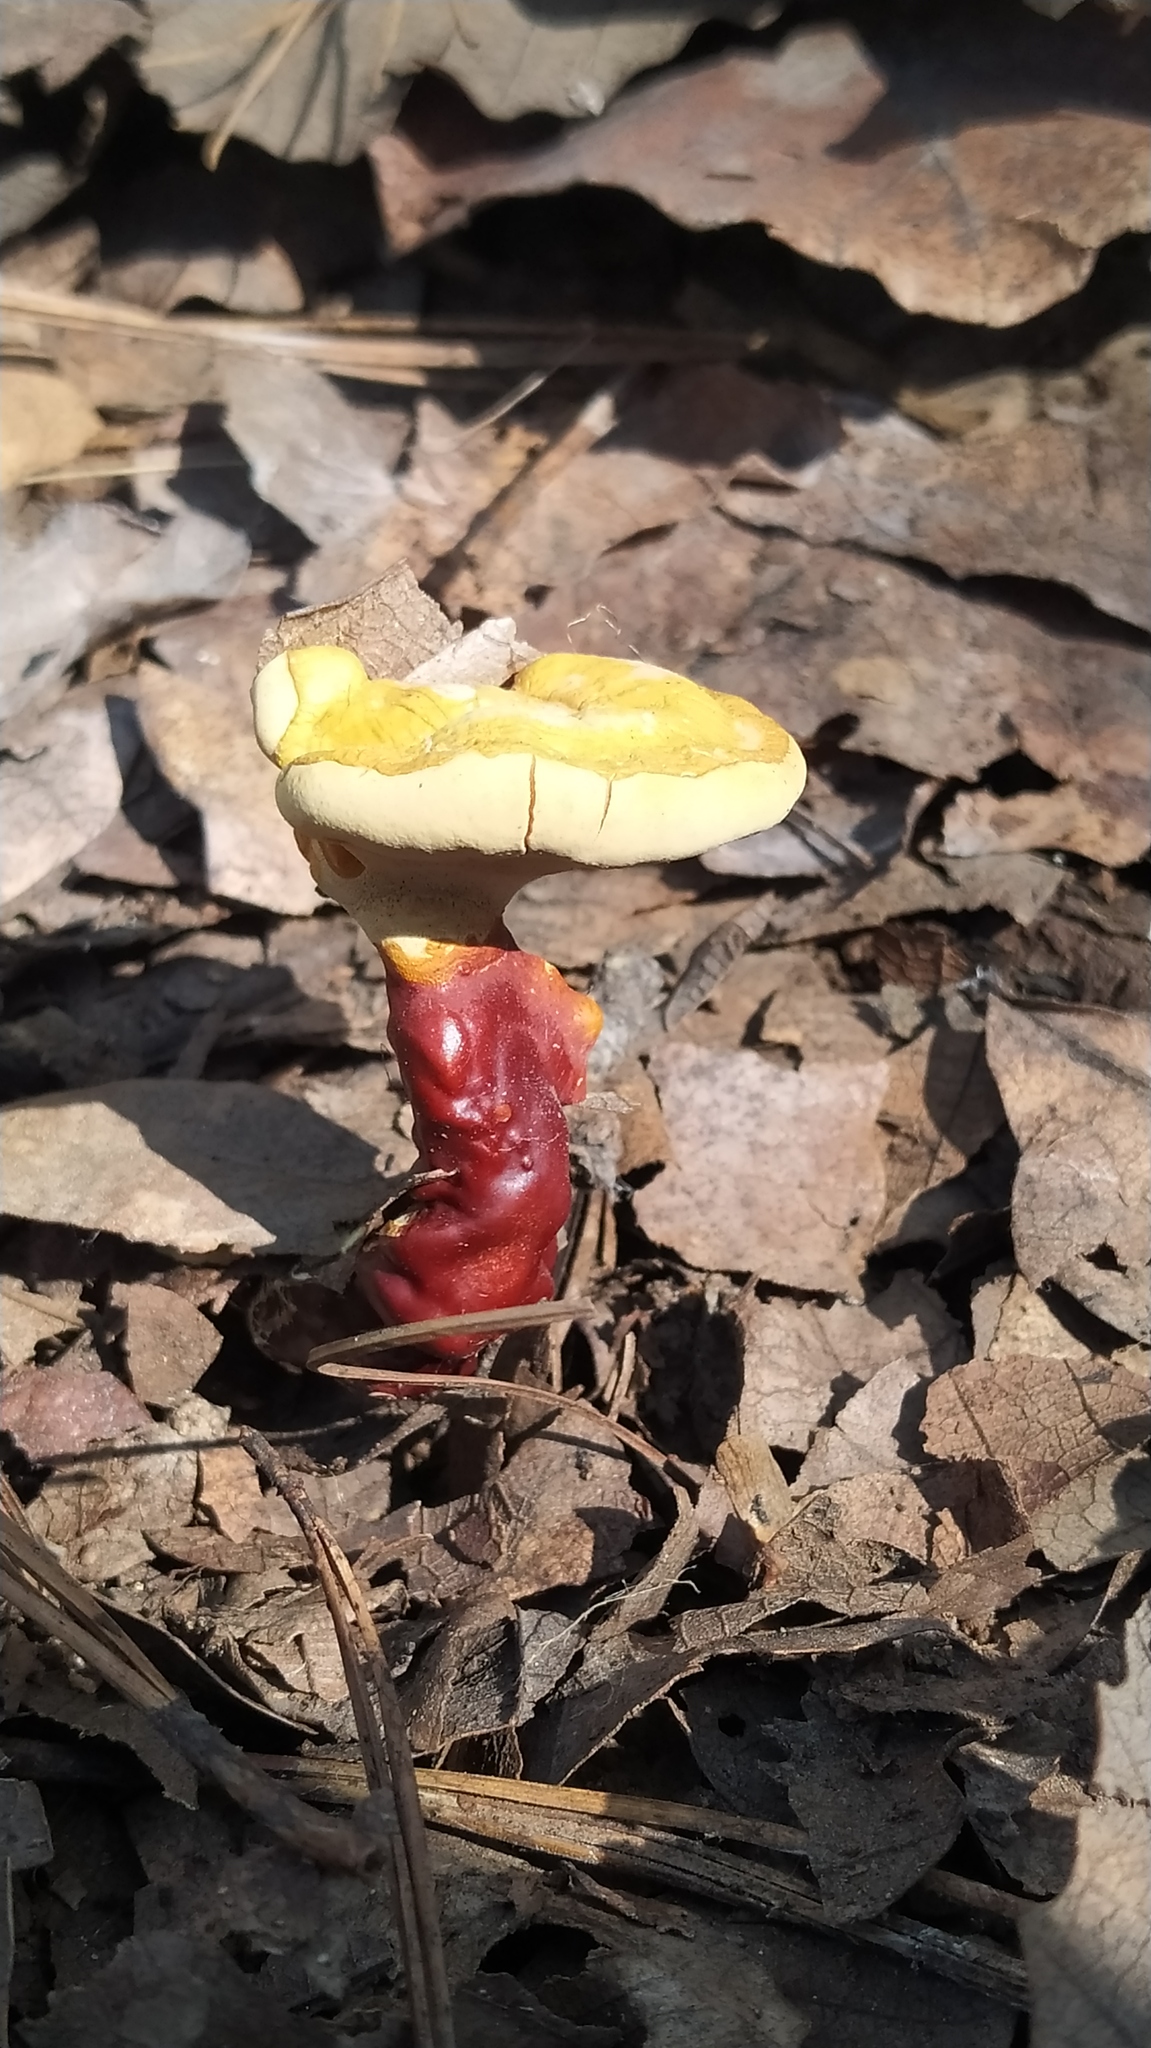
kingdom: Fungi
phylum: Basidiomycota
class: Agaricomycetes
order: Polyporales
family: Polyporaceae
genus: Ganoderma
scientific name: Ganoderma curtisii
